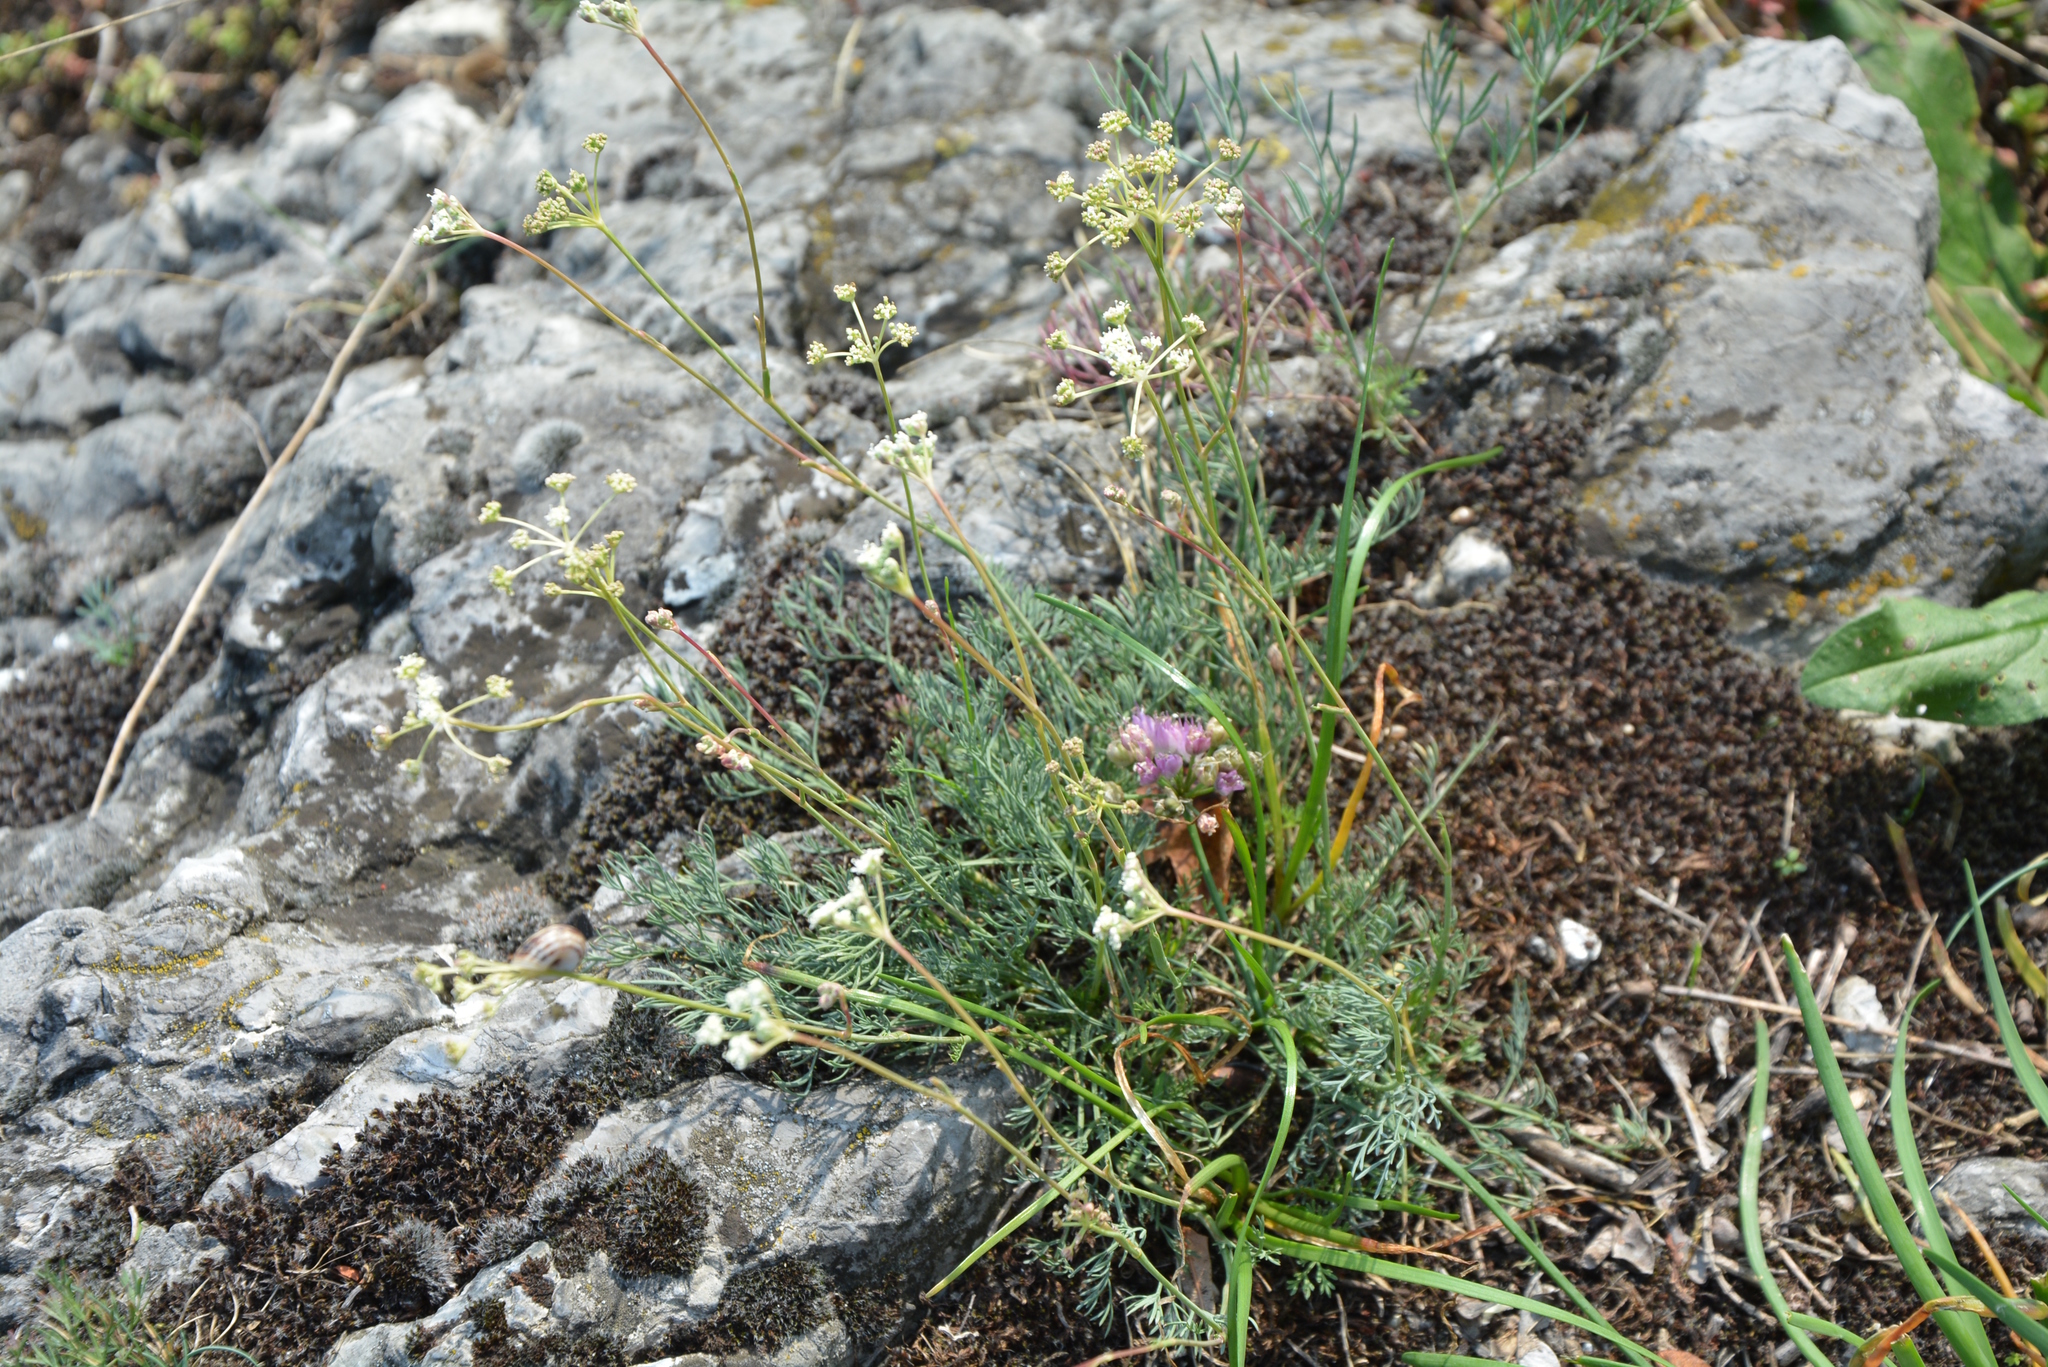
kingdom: Plantae
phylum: Tracheophyta
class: Magnoliopsida
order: Apiales
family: Apiaceae
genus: Hippomarathrum
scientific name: Hippomarathrum
